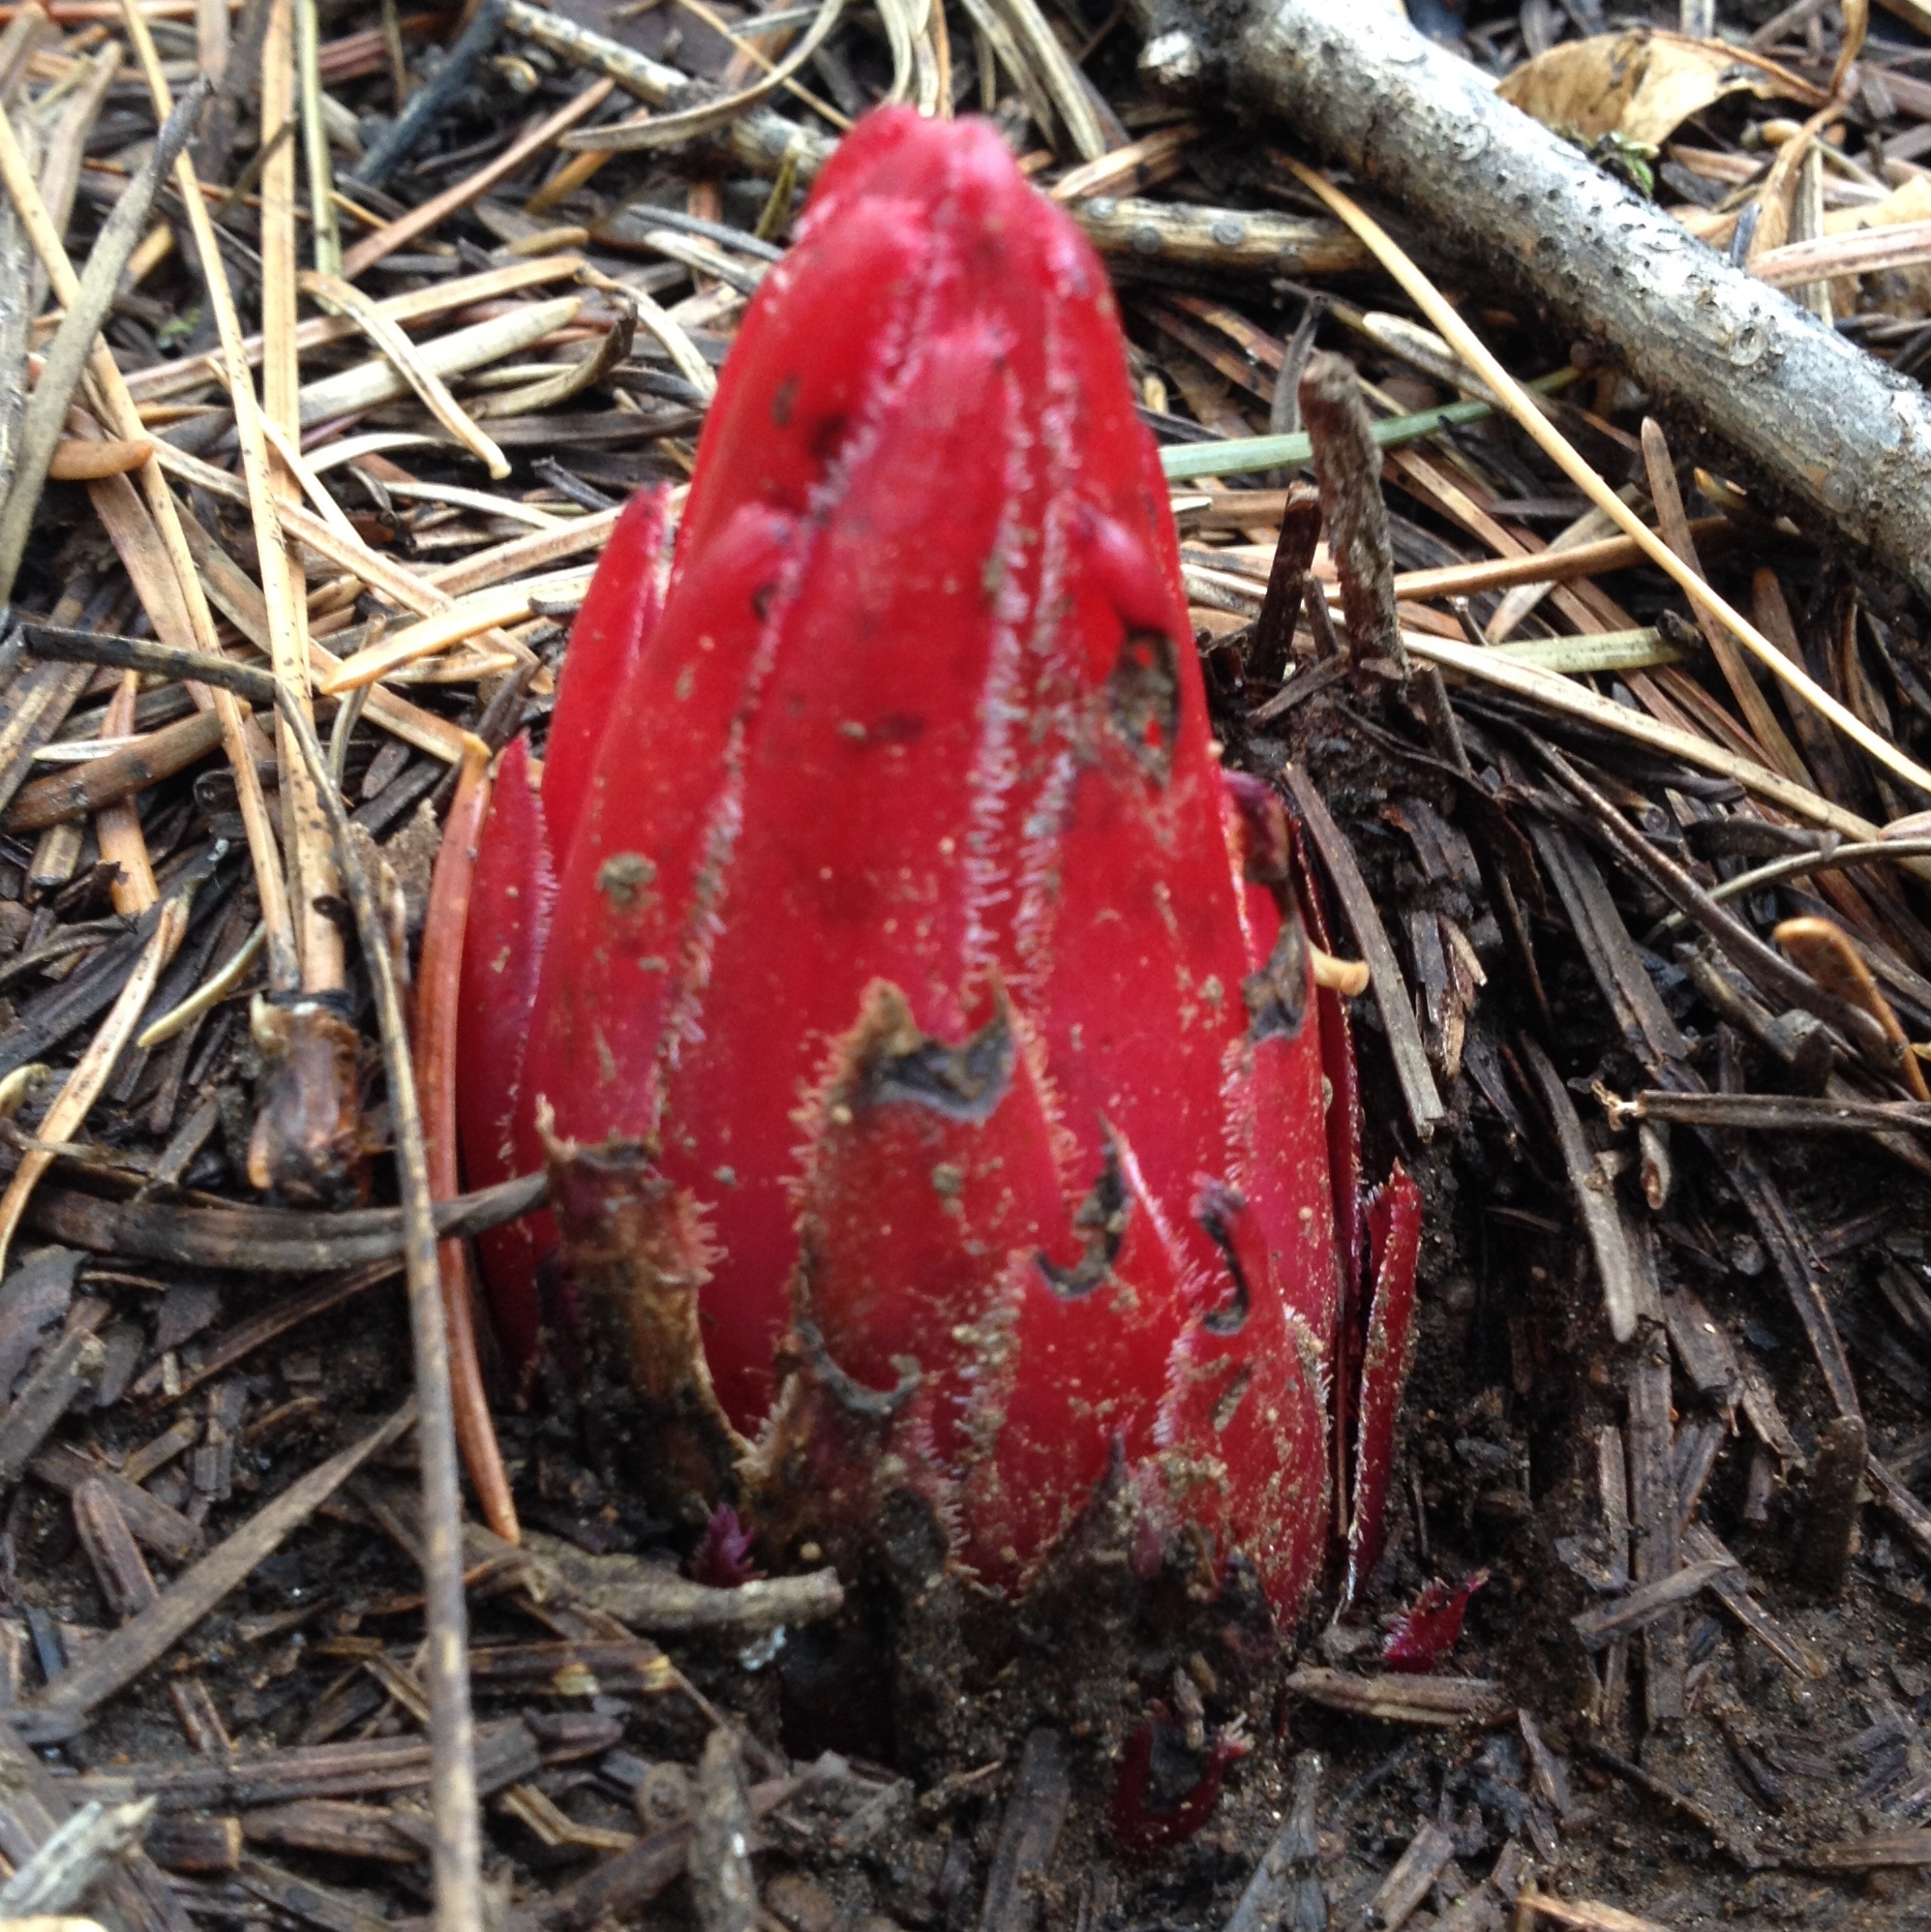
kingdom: Plantae
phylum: Tracheophyta
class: Magnoliopsida
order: Ericales
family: Ericaceae
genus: Sarcodes
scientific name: Sarcodes sanguinea
